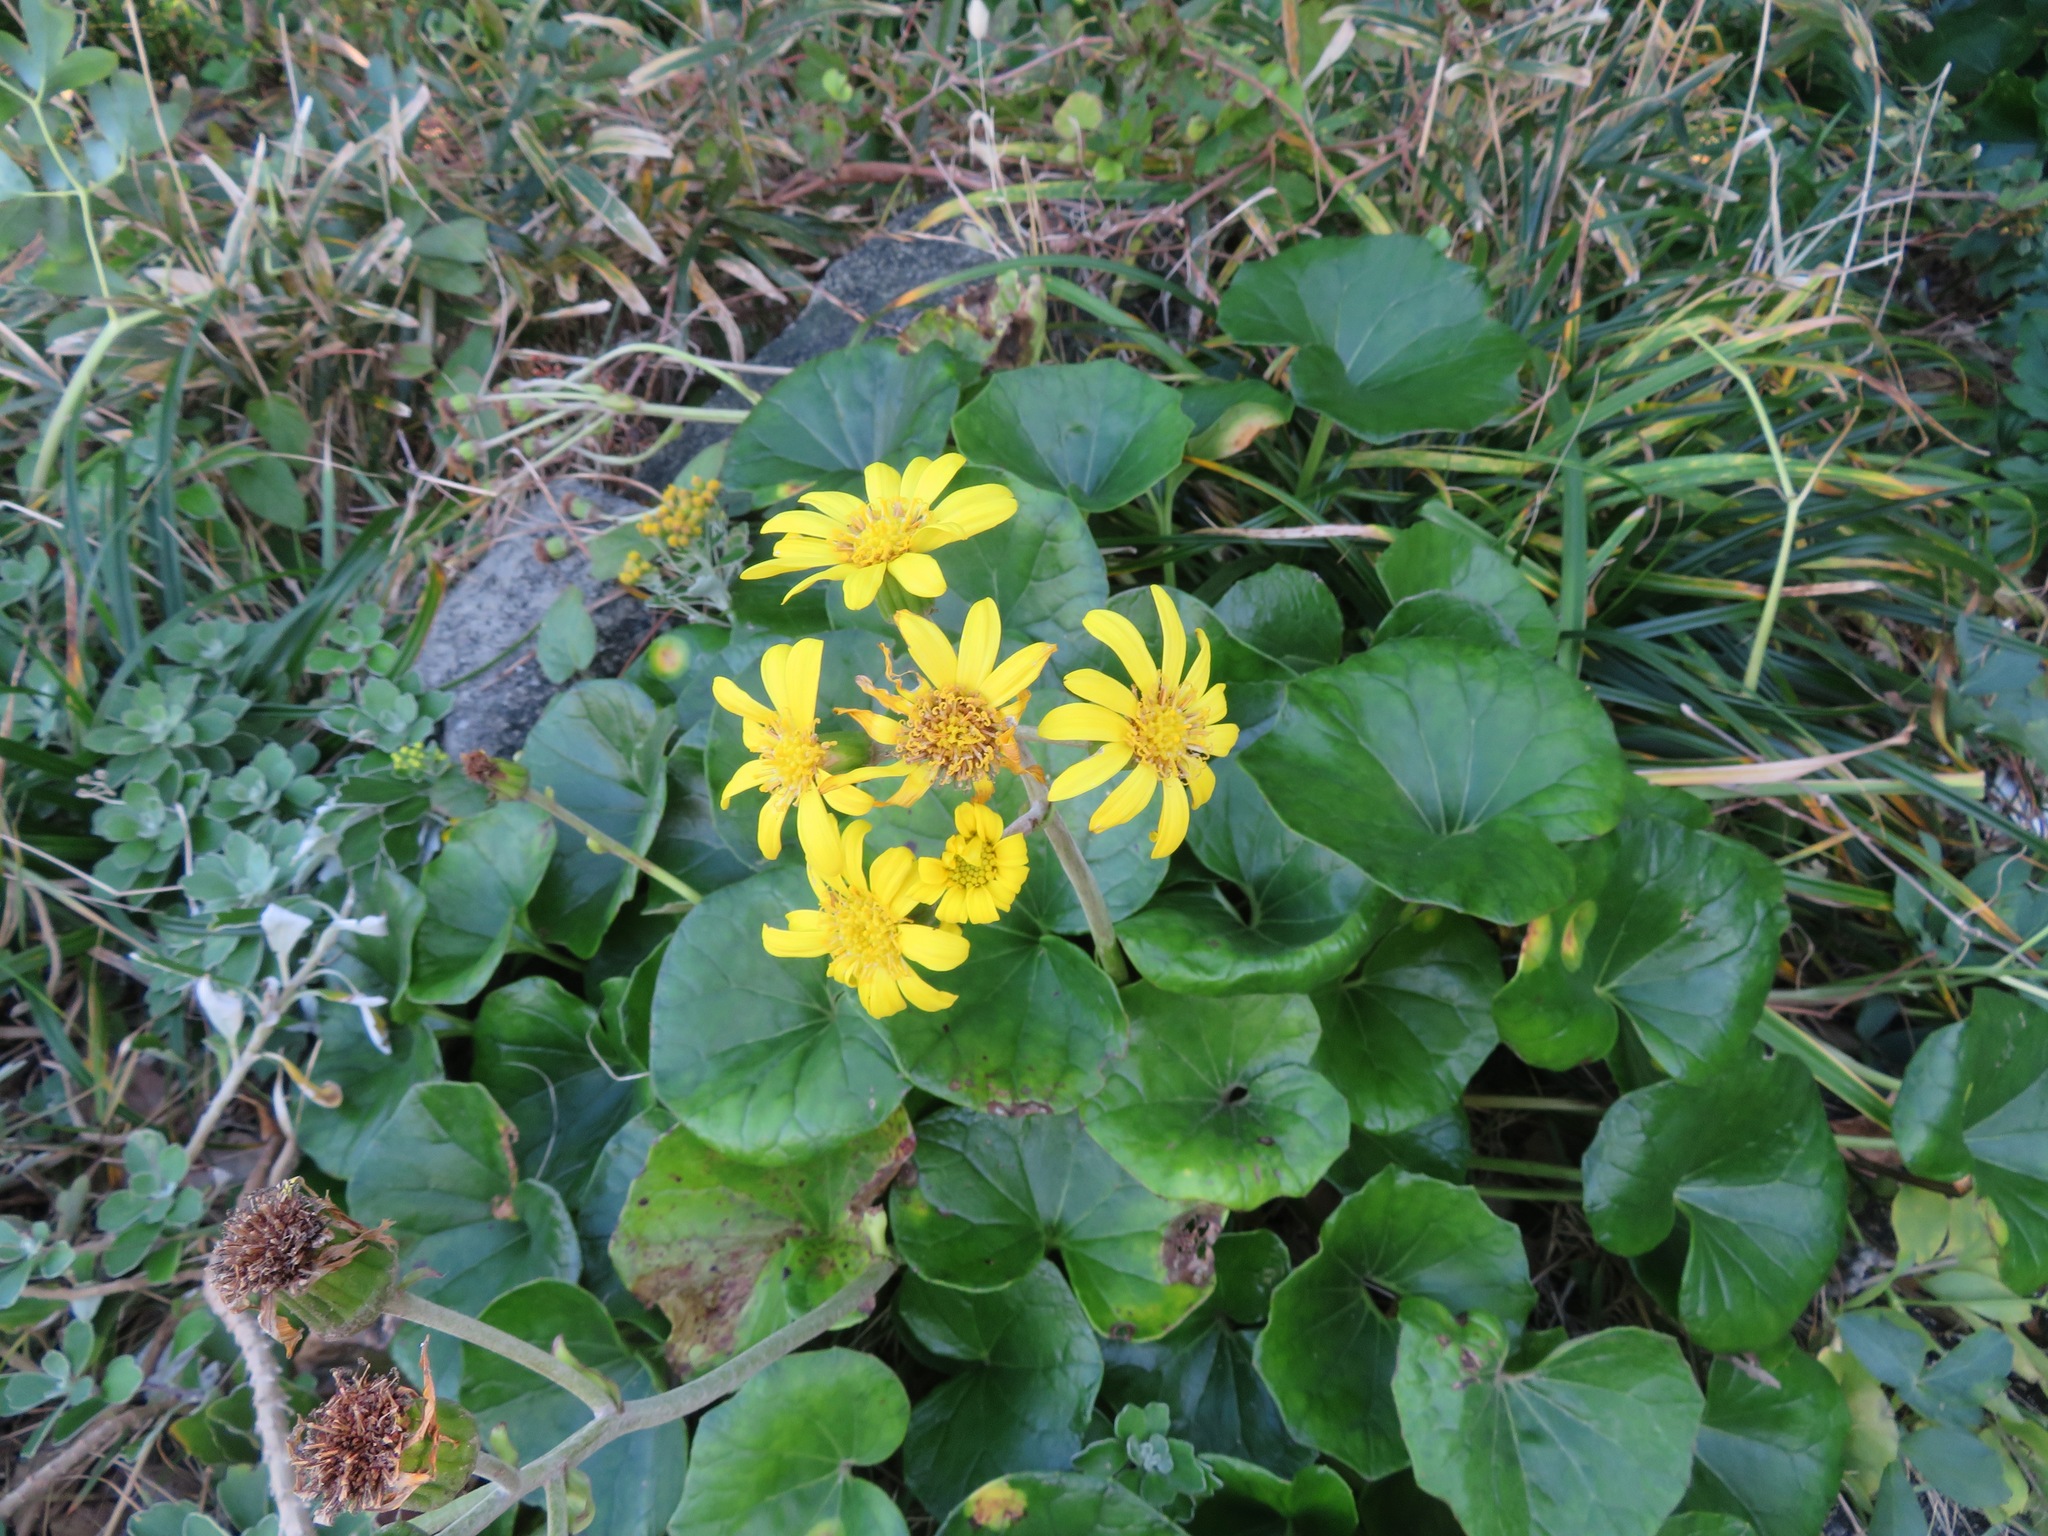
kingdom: Plantae
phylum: Tracheophyta
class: Magnoliopsida
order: Asterales
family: Asteraceae
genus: Farfugium
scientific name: Farfugium japonicum
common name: Leopardplant
